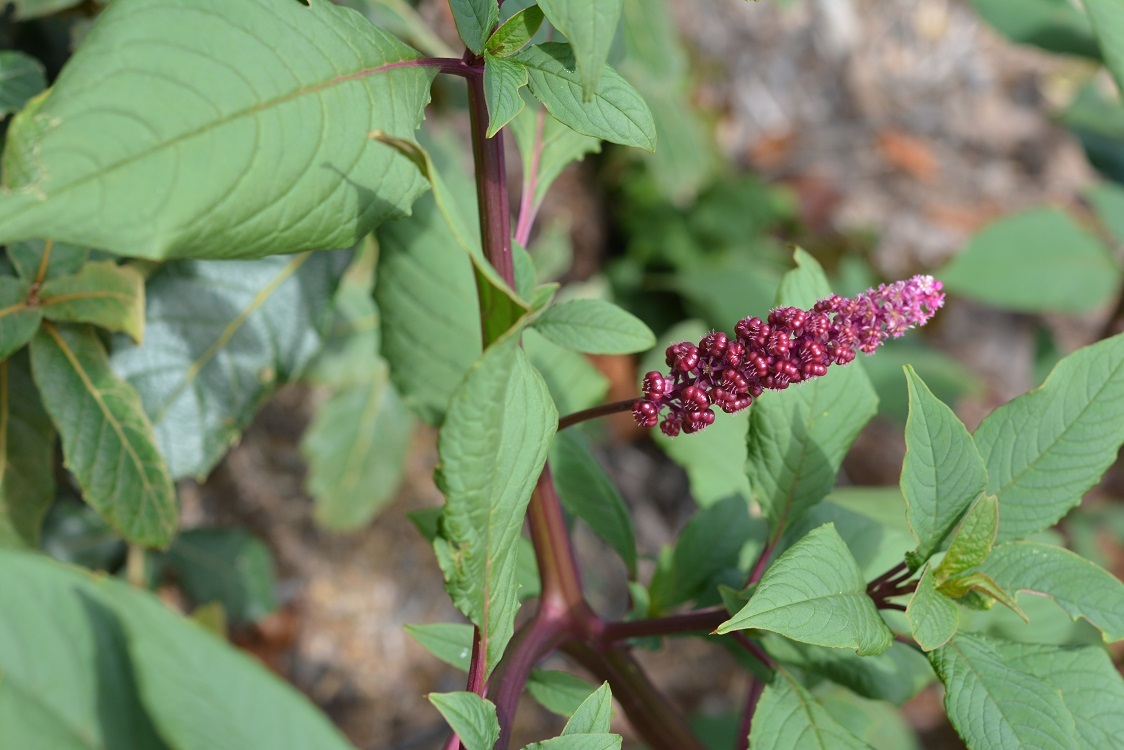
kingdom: Plantae
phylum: Tracheophyta
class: Magnoliopsida
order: Caryophyllales
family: Phytolaccaceae
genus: Phytolacca
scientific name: Phytolacca icosandra
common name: Button pokeweed
